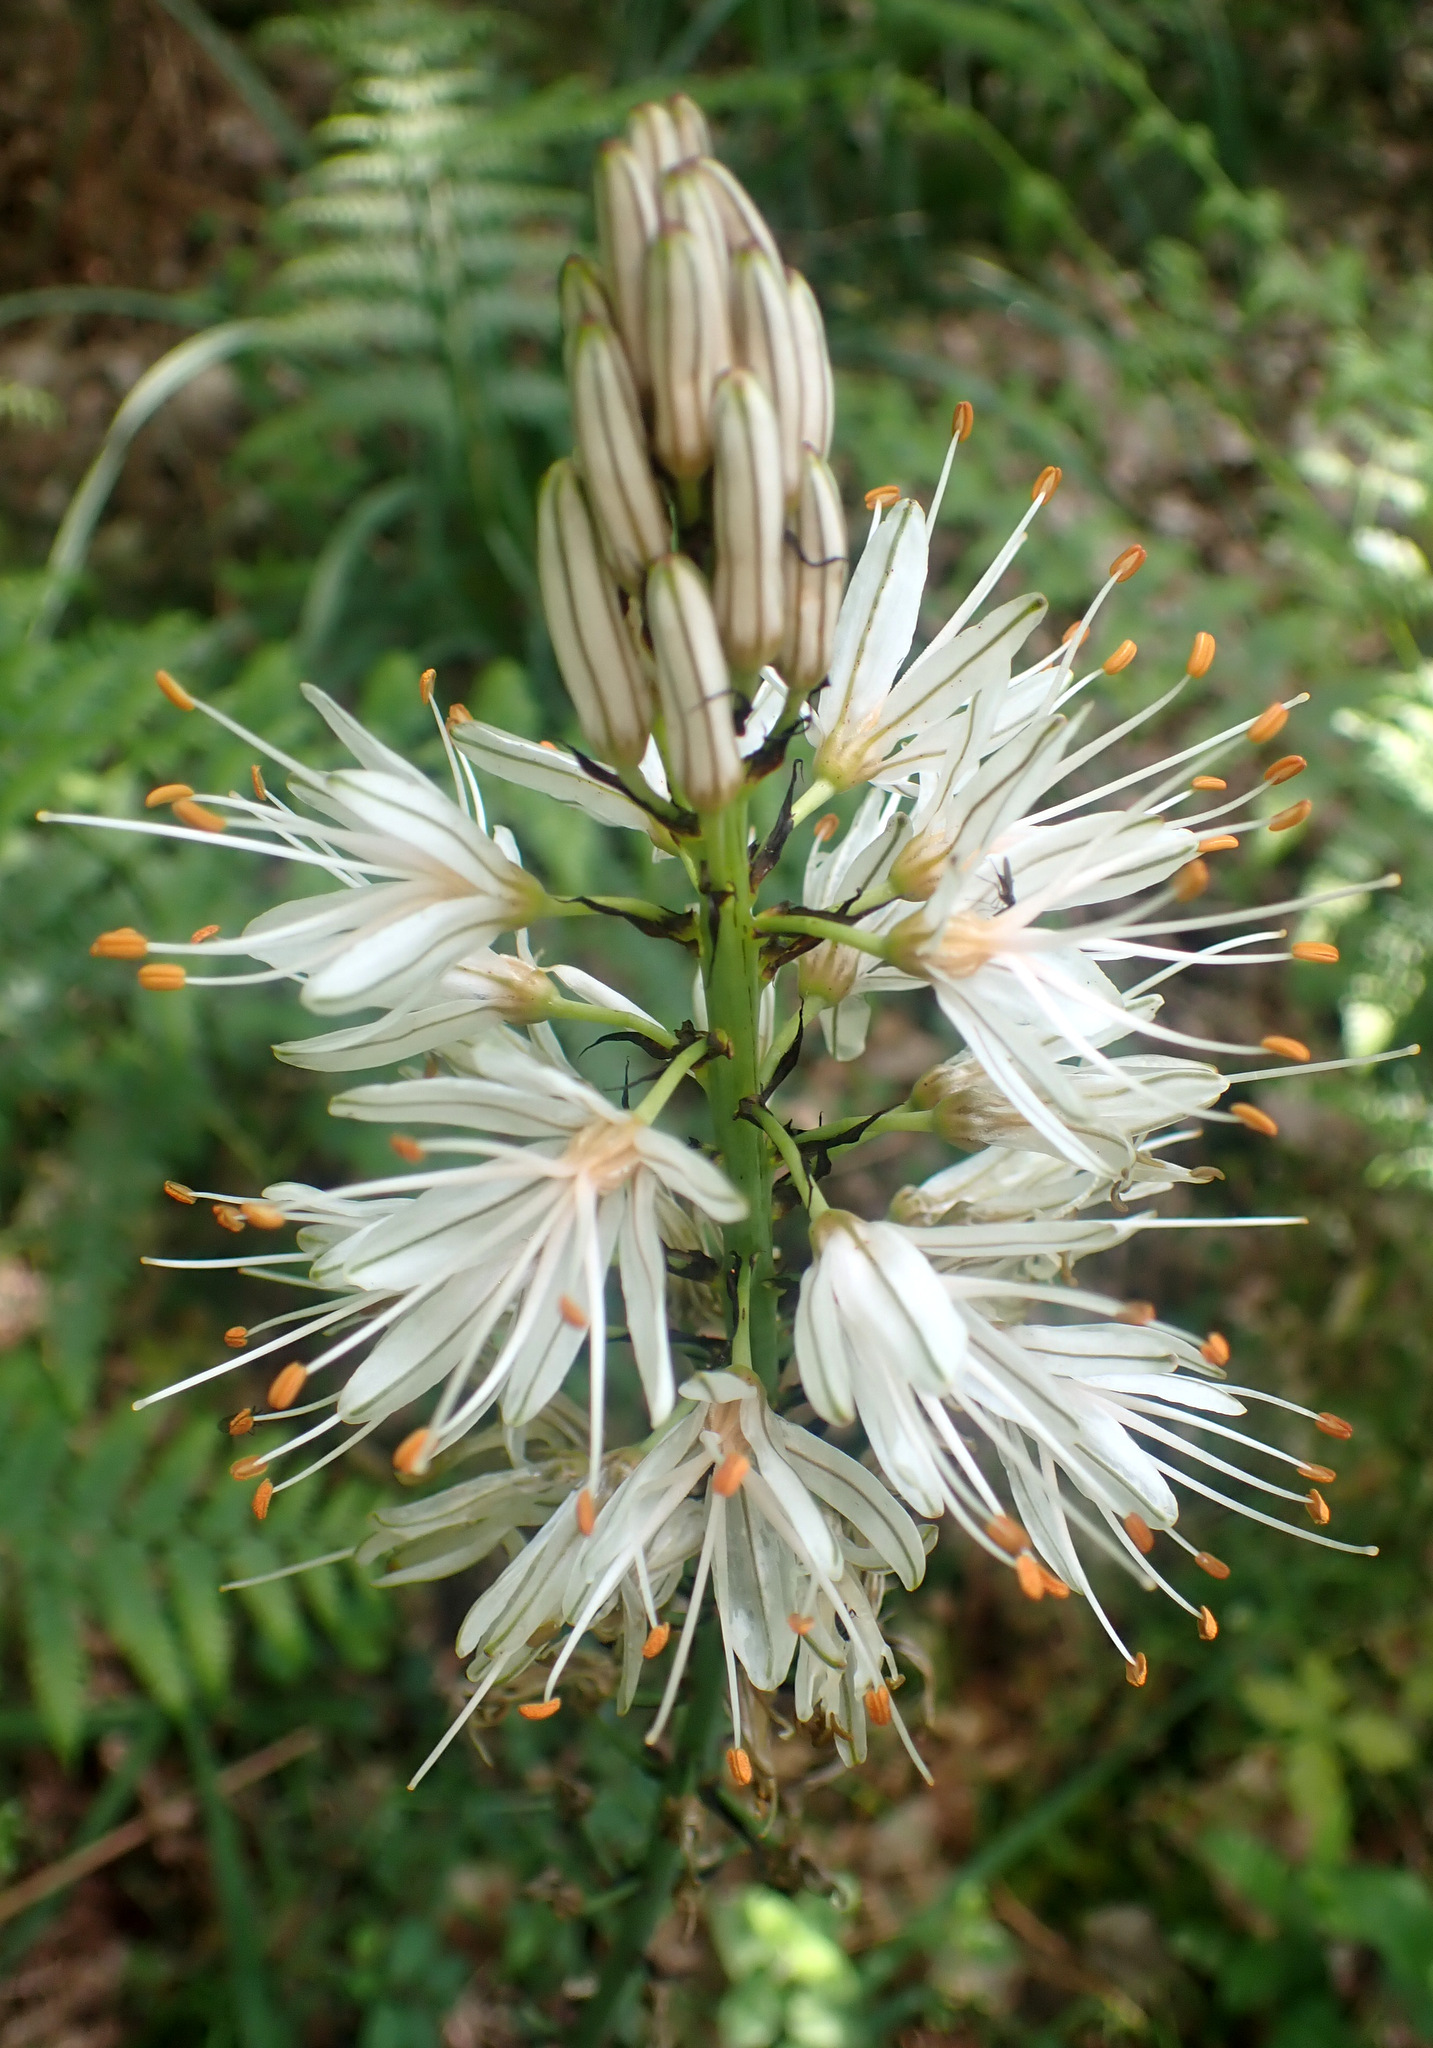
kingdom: Plantae
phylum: Tracheophyta
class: Liliopsida
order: Asparagales
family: Asphodelaceae
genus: Asphodelus
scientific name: Asphodelus albus
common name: White asphodel
